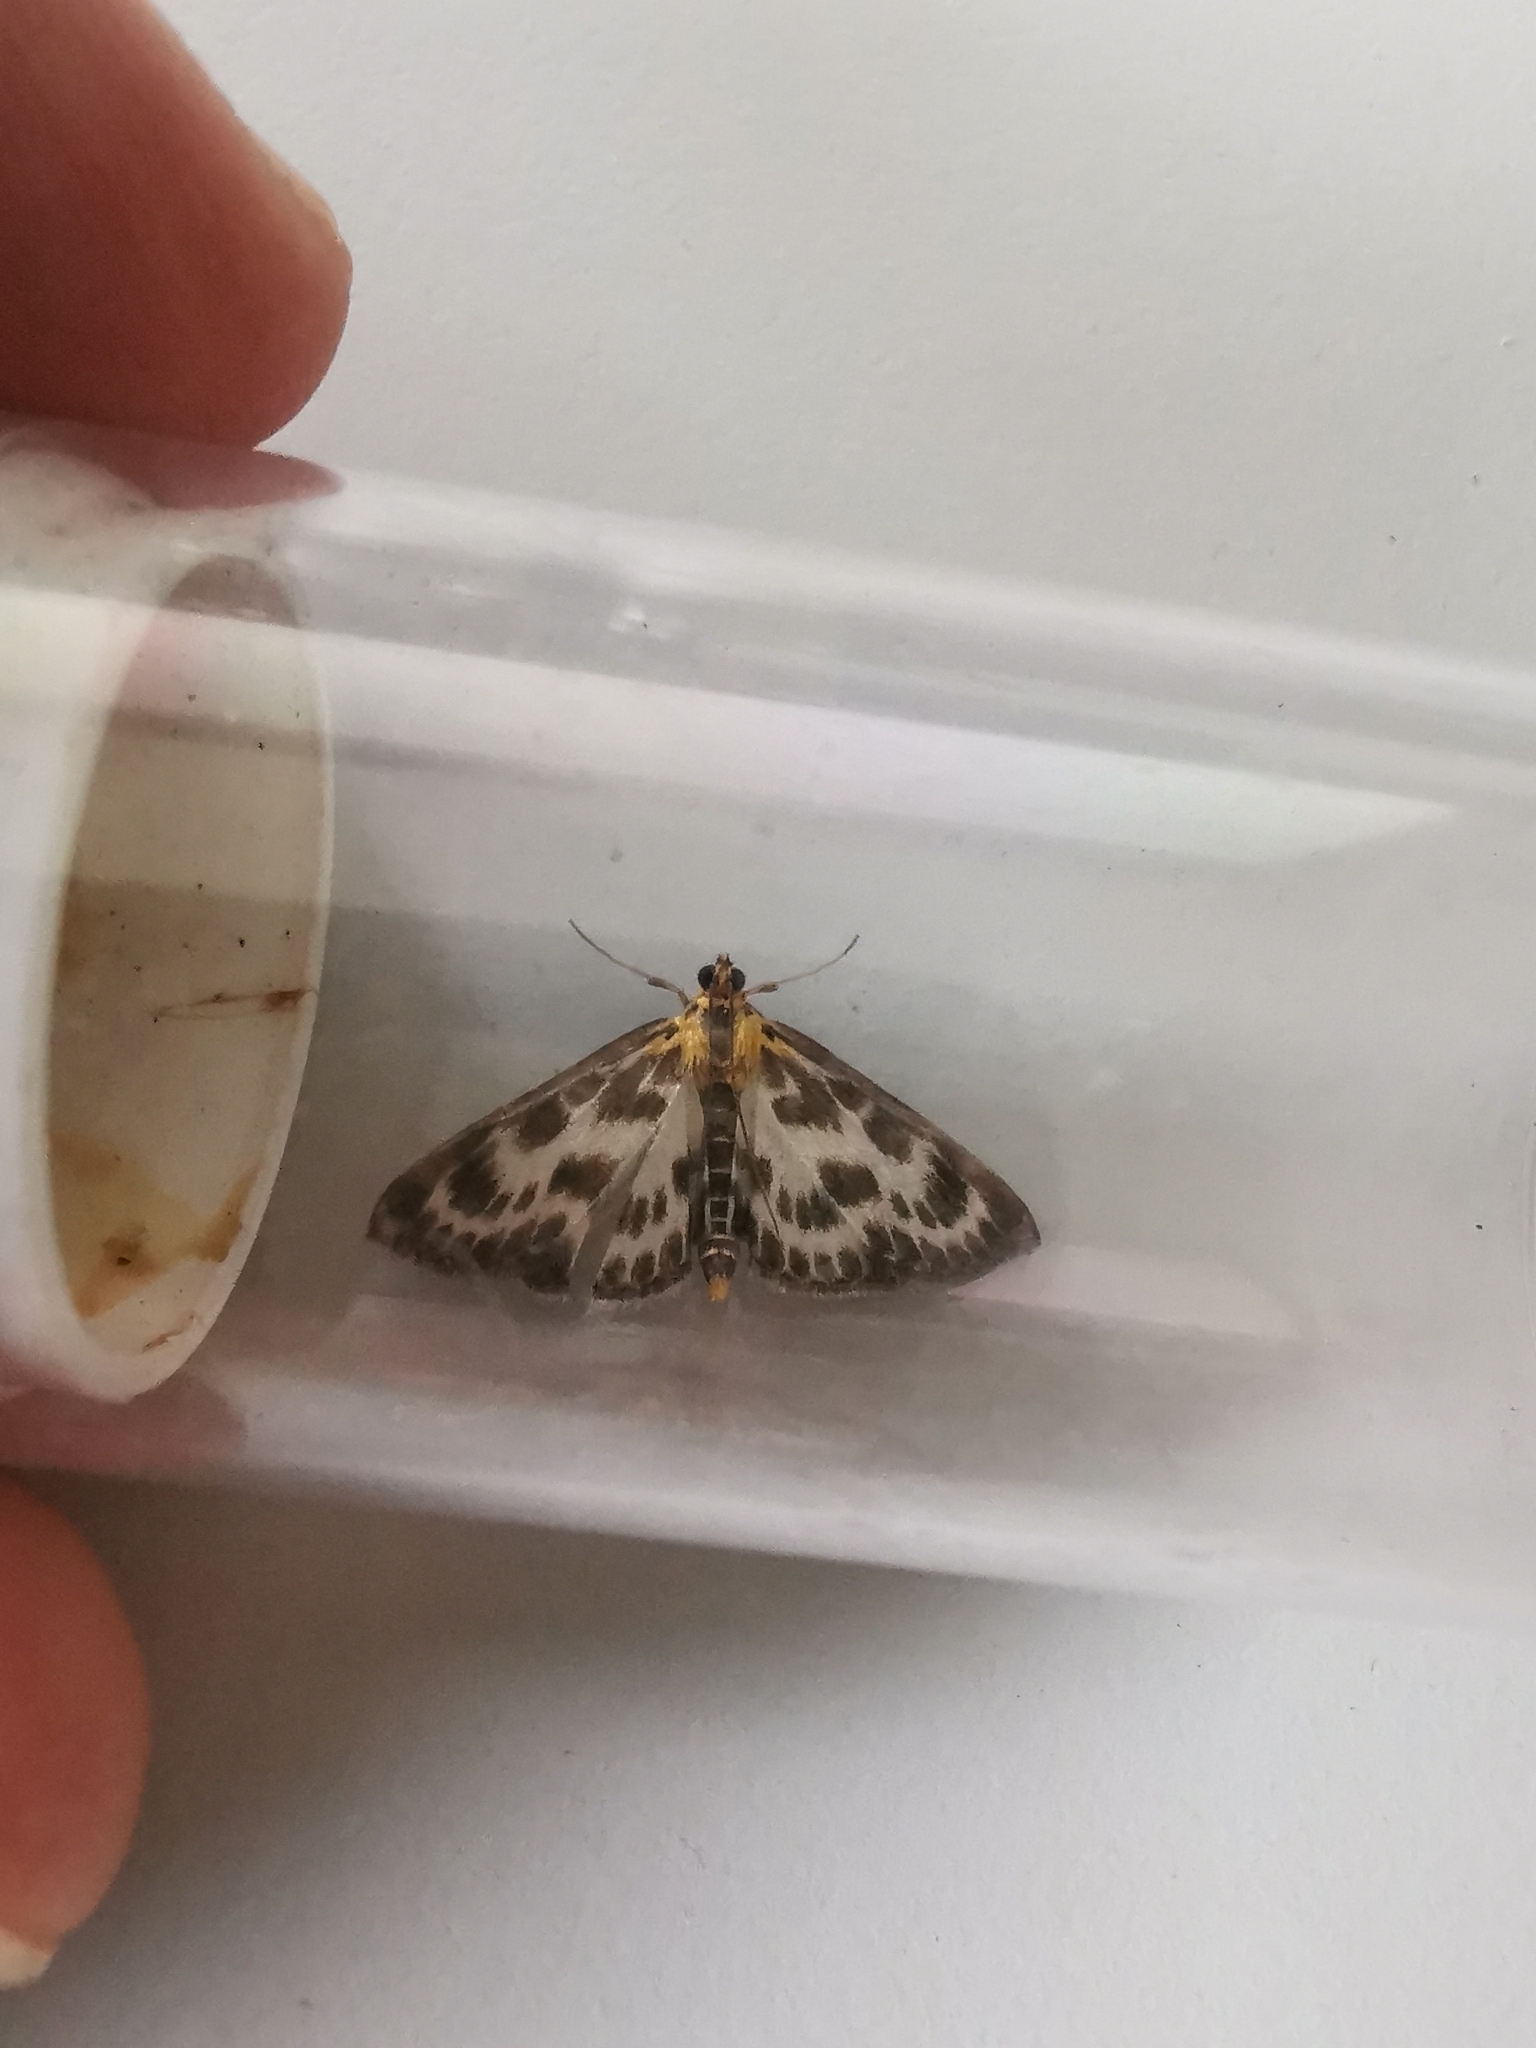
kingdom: Animalia
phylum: Arthropoda
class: Insecta
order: Lepidoptera
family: Crambidae
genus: Anania
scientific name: Anania hortulata
